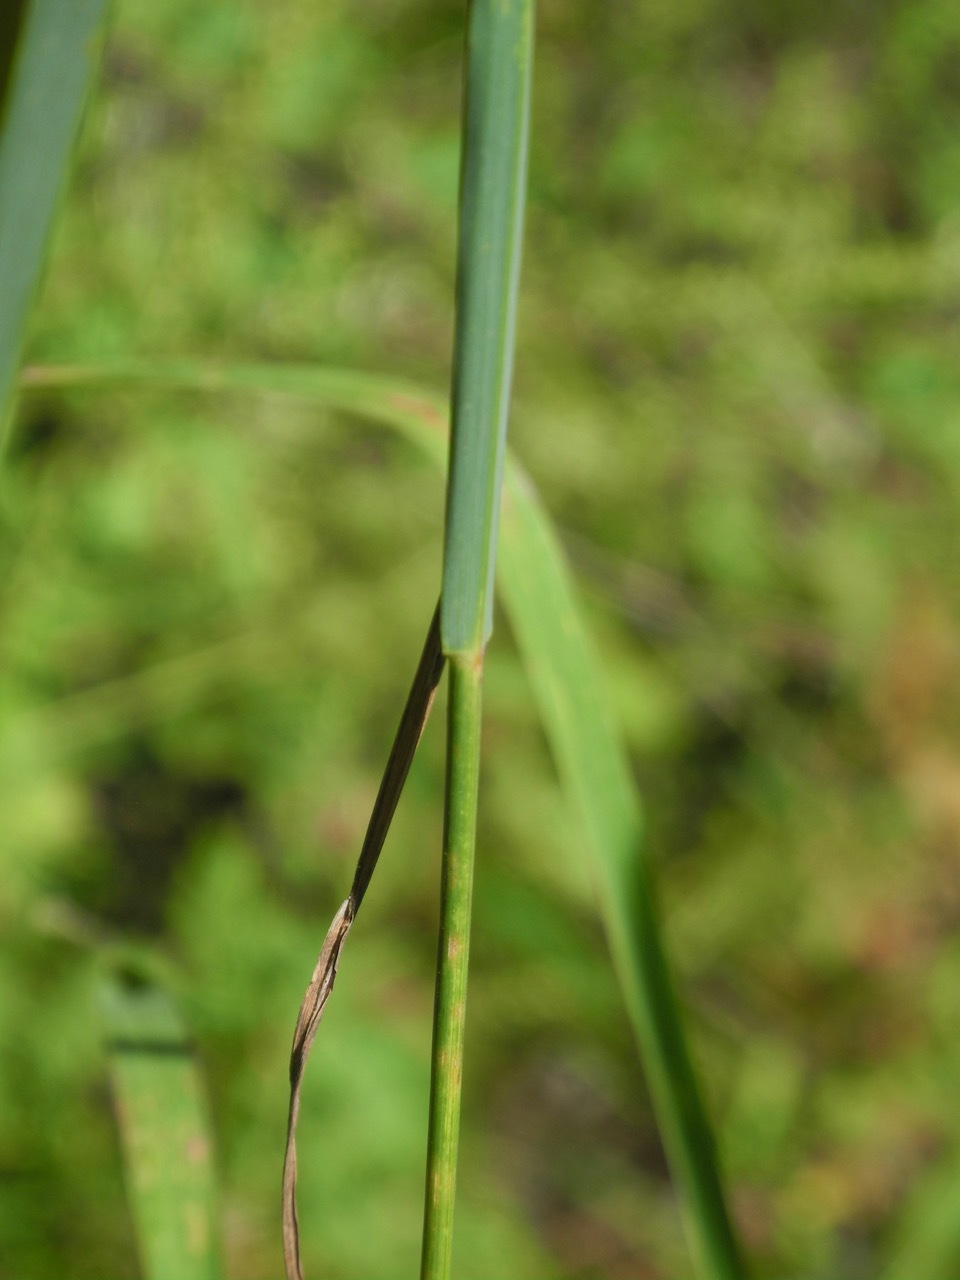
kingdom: Plantae
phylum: Tracheophyta
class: Liliopsida
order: Poales
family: Poaceae
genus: Andropogon
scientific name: Andropogon gerardi
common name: Big bluestem
